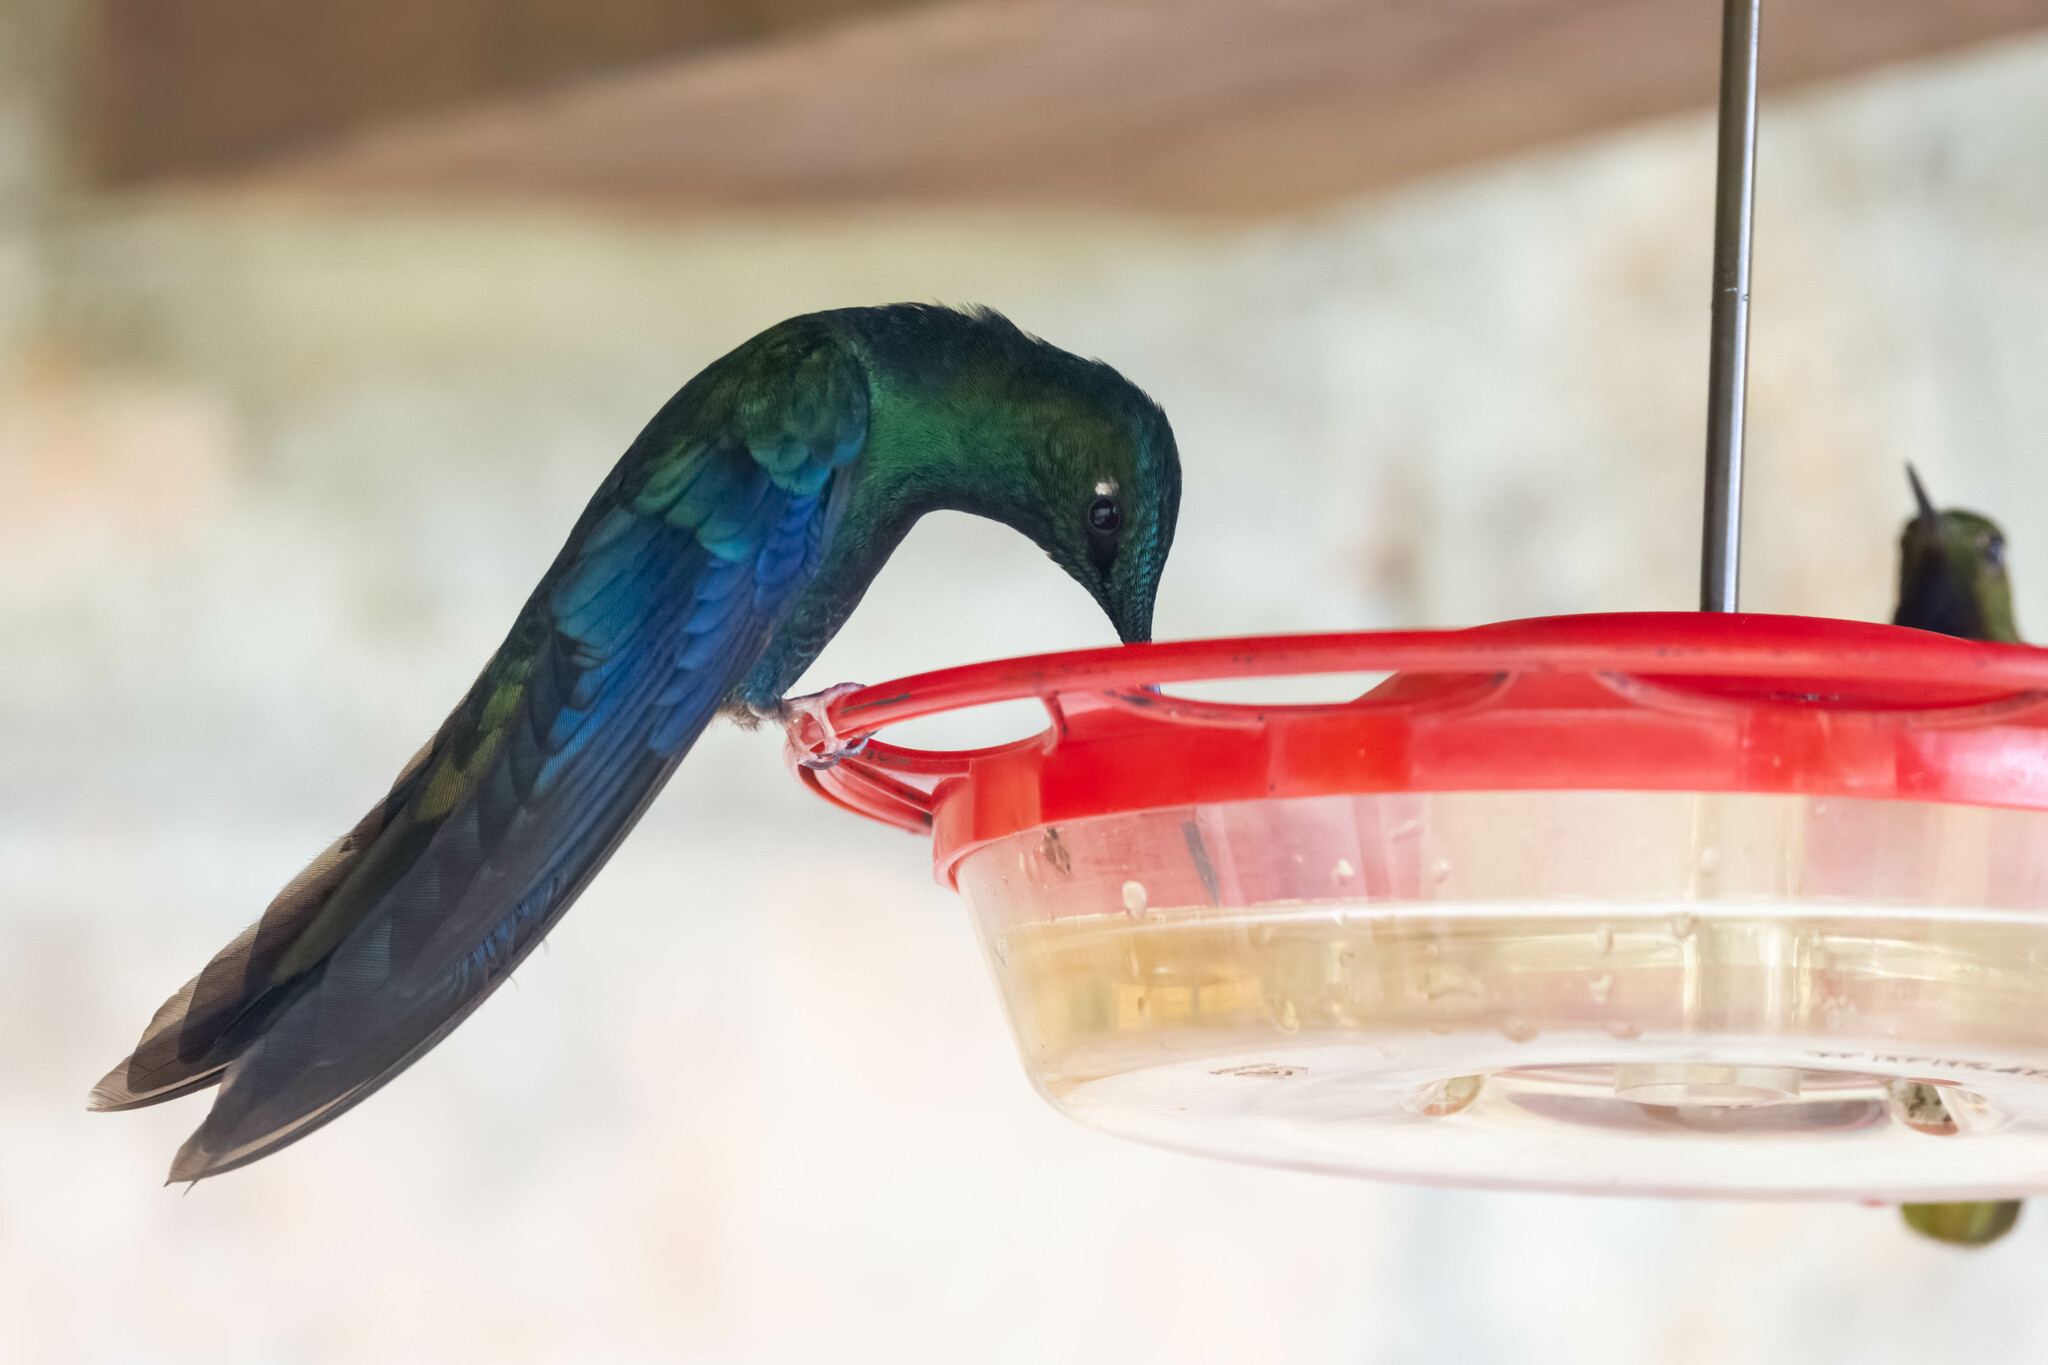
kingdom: Animalia
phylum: Chordata
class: Aves
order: Apodiformes
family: Trochilidae
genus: Pterophanes
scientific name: Pterophanes cyanopterus
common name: Great sapphirewing
